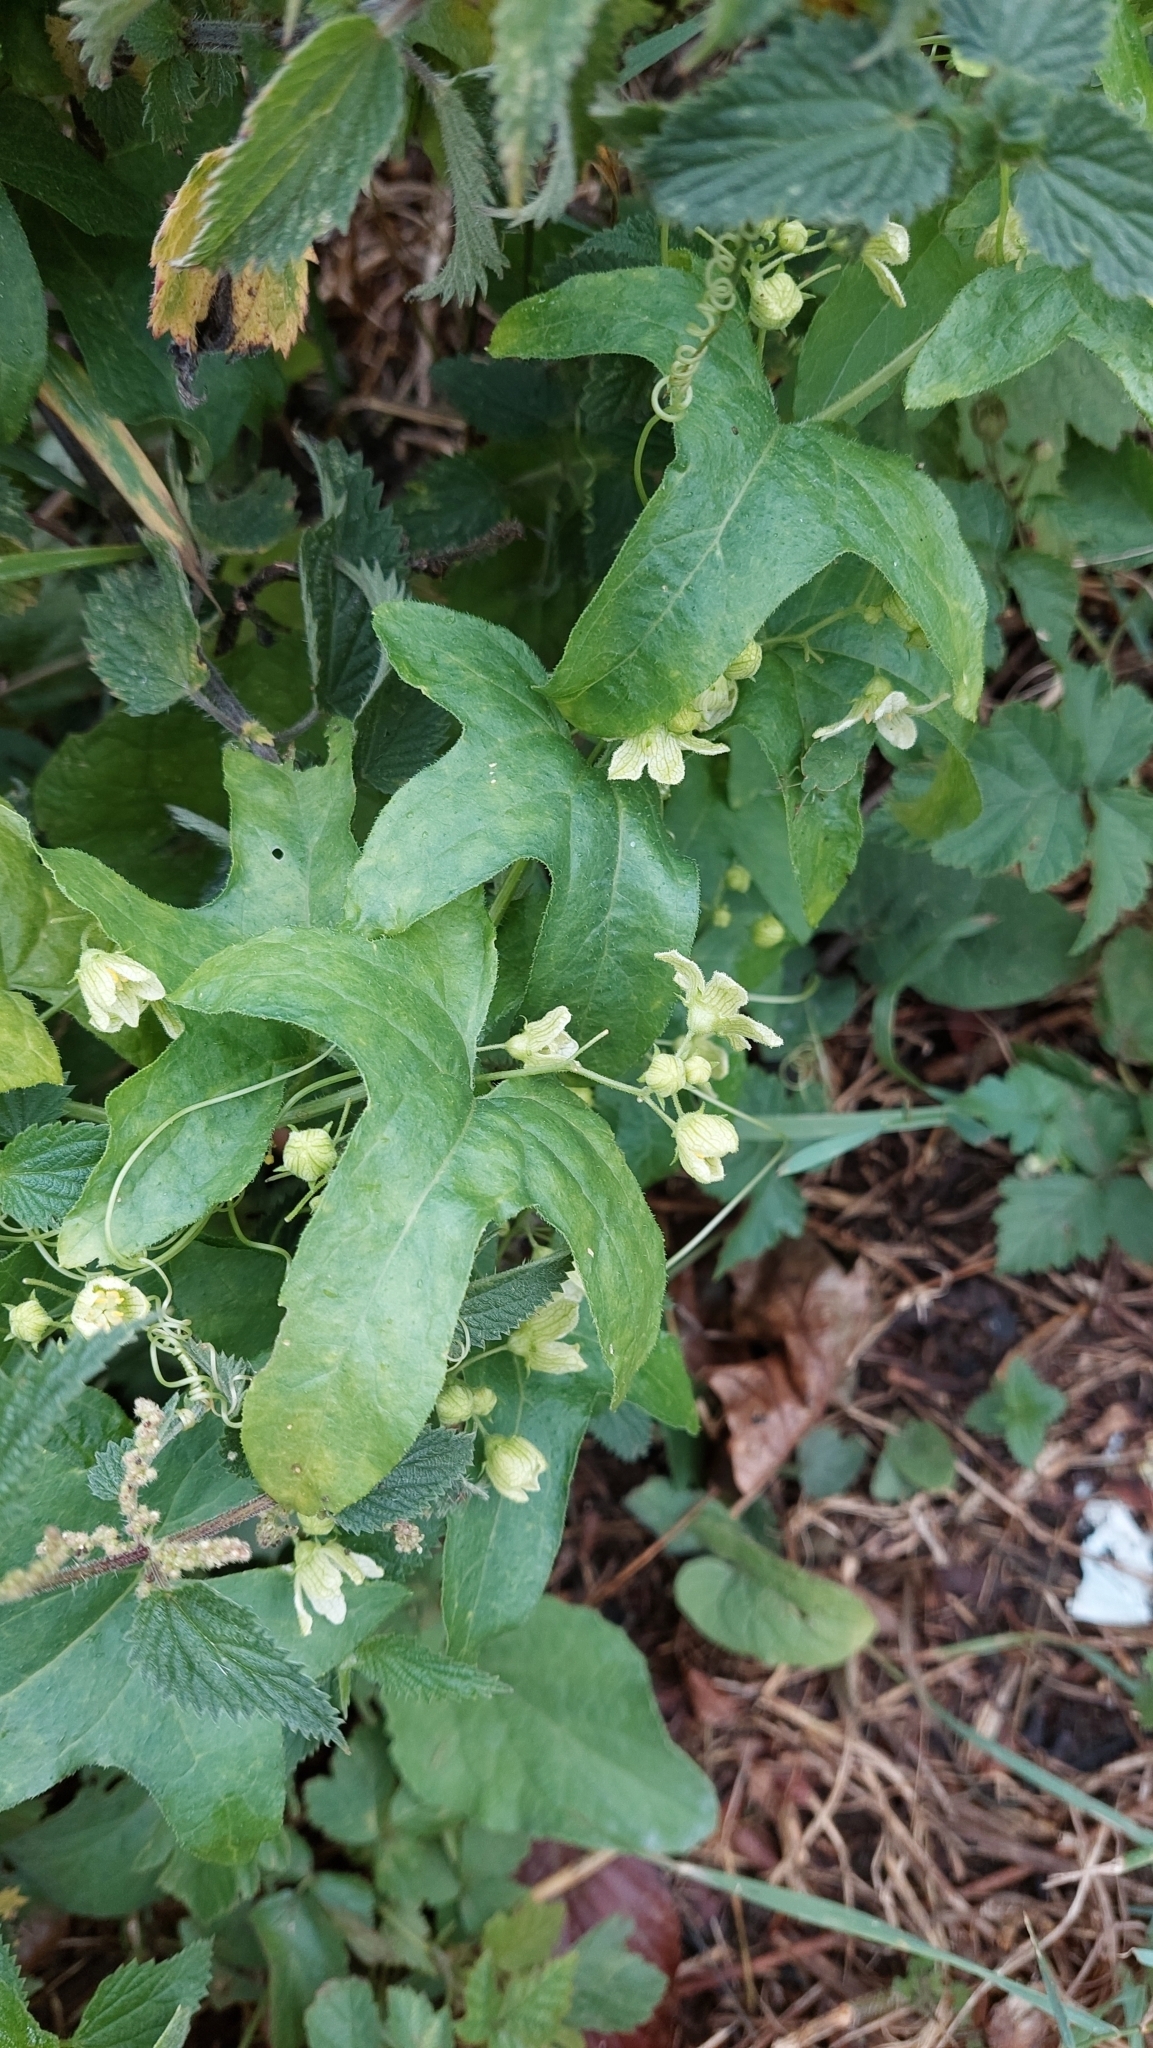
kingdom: Plantae
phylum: Tracheophyta
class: Magnoliopsida
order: Cucurbitales
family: Cucurbitaceae
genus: Bryonia
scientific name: Bryonia cretica
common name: Cretan bryony
